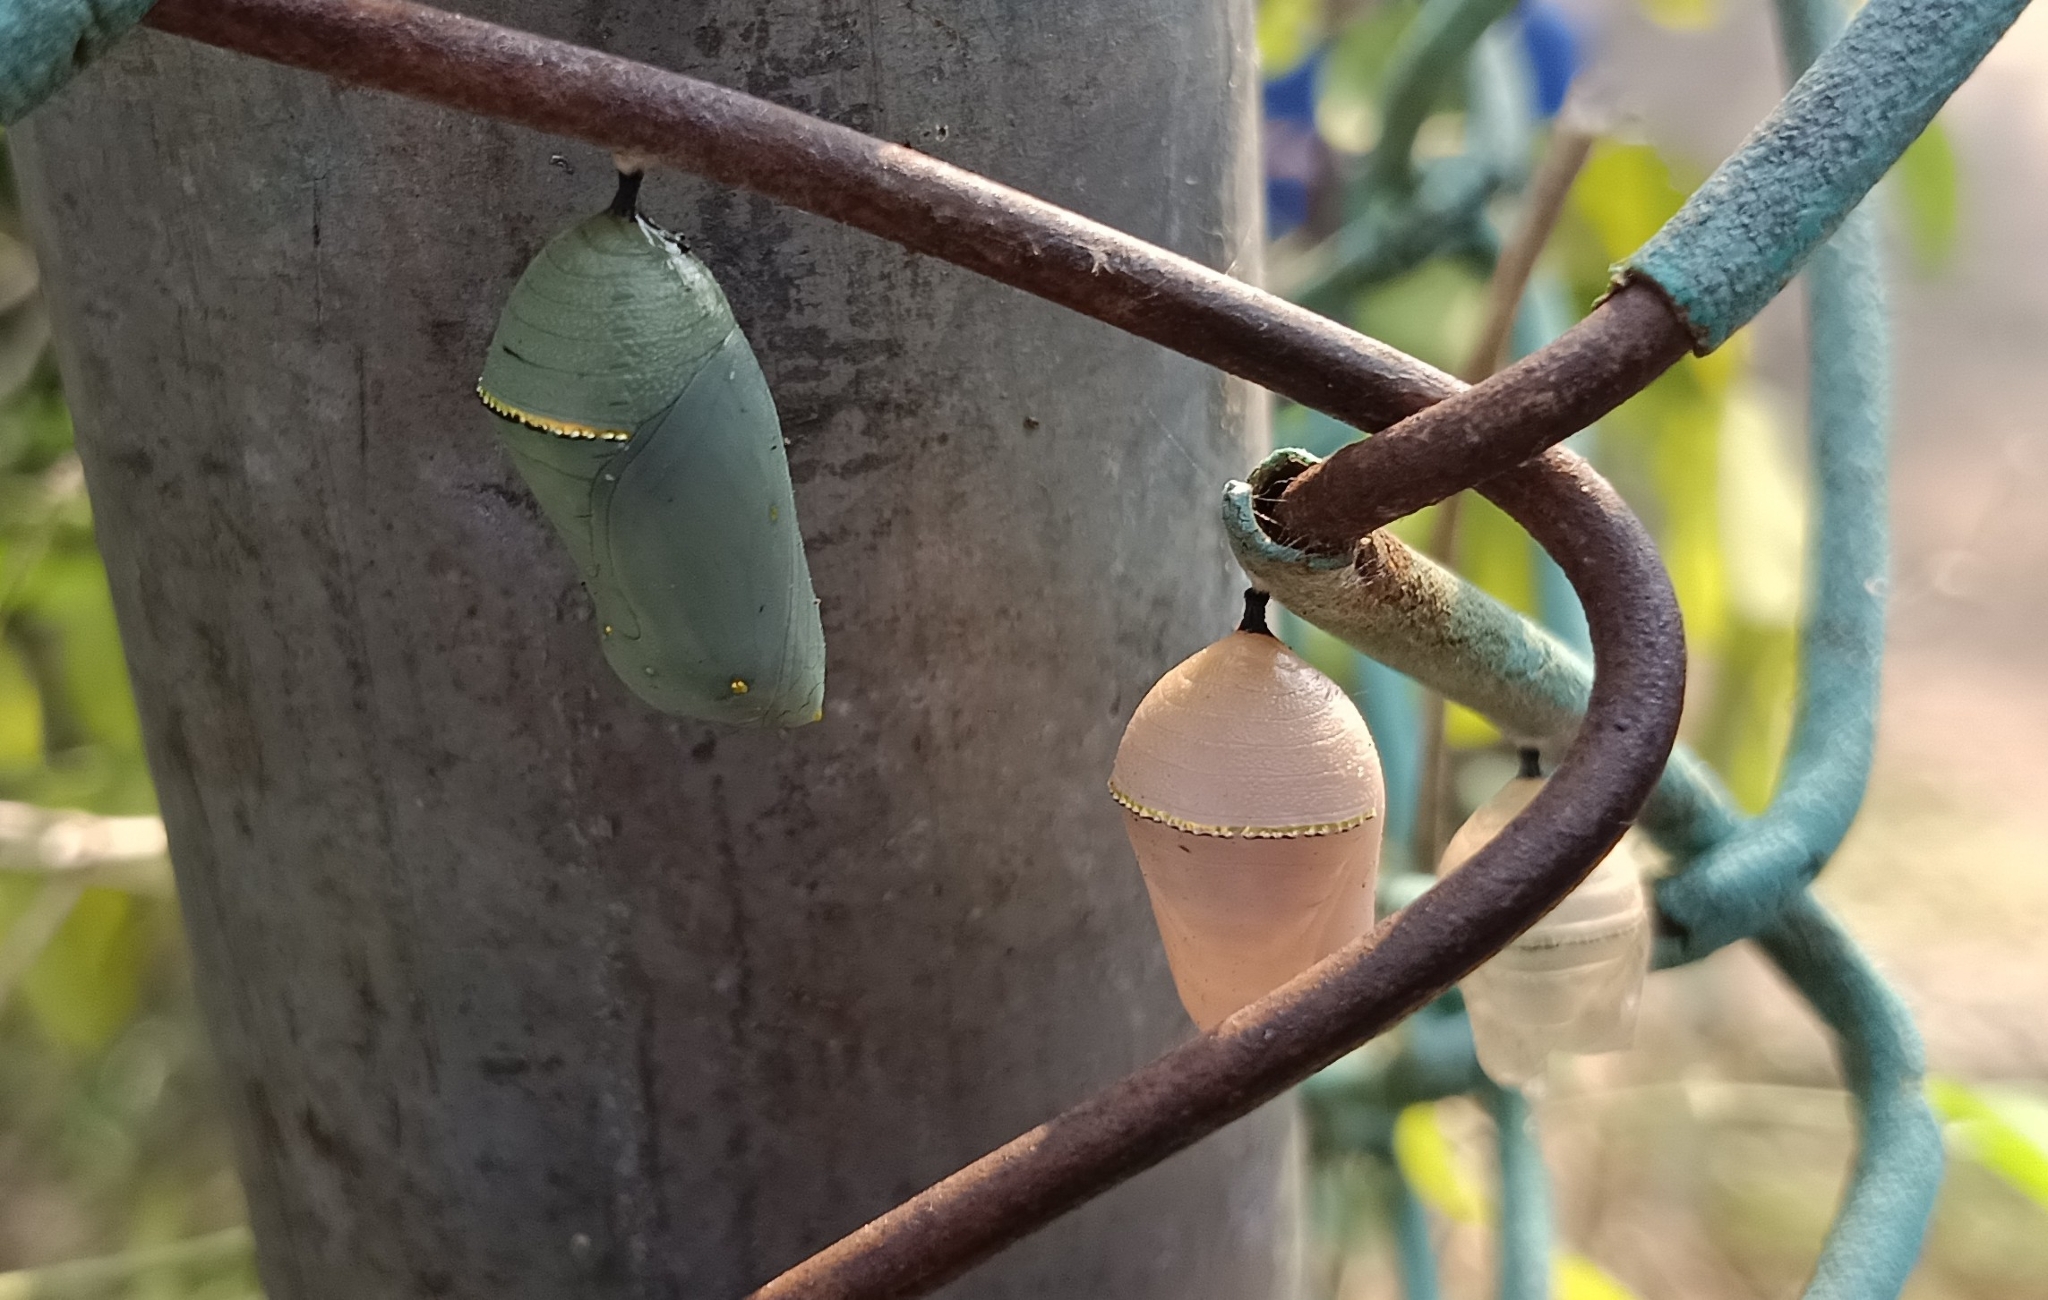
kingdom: Animalia
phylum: Arthropoda
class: Insecta
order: Lepidoptera
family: Nymphalidae
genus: Danaus
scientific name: Danaus chrysippus
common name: Plain tiger
